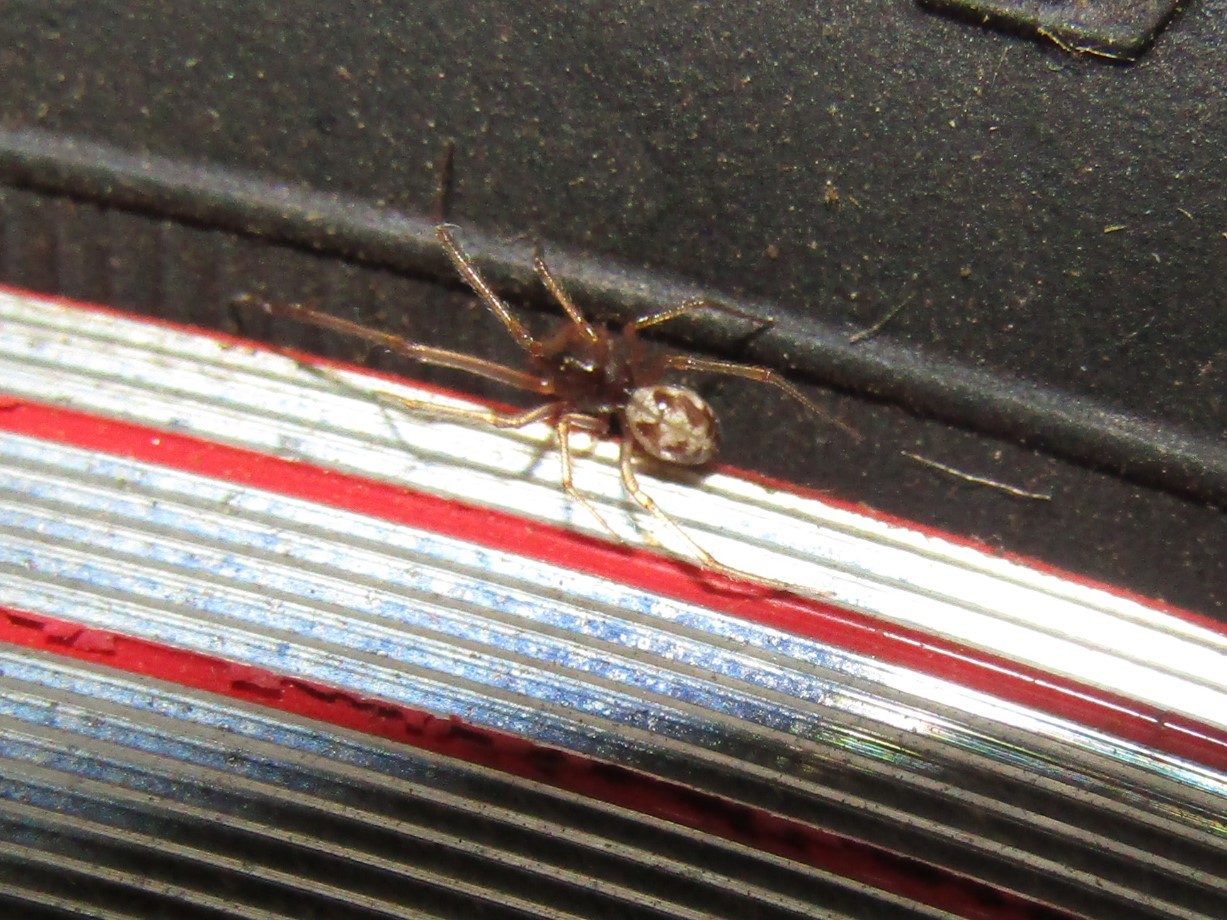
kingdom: Animalia
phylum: Arthropoda
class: Arachnida
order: Araneae
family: Theridiidae
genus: Steatoda
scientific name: Steatoda triangulosa
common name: Triangulate bud spider
